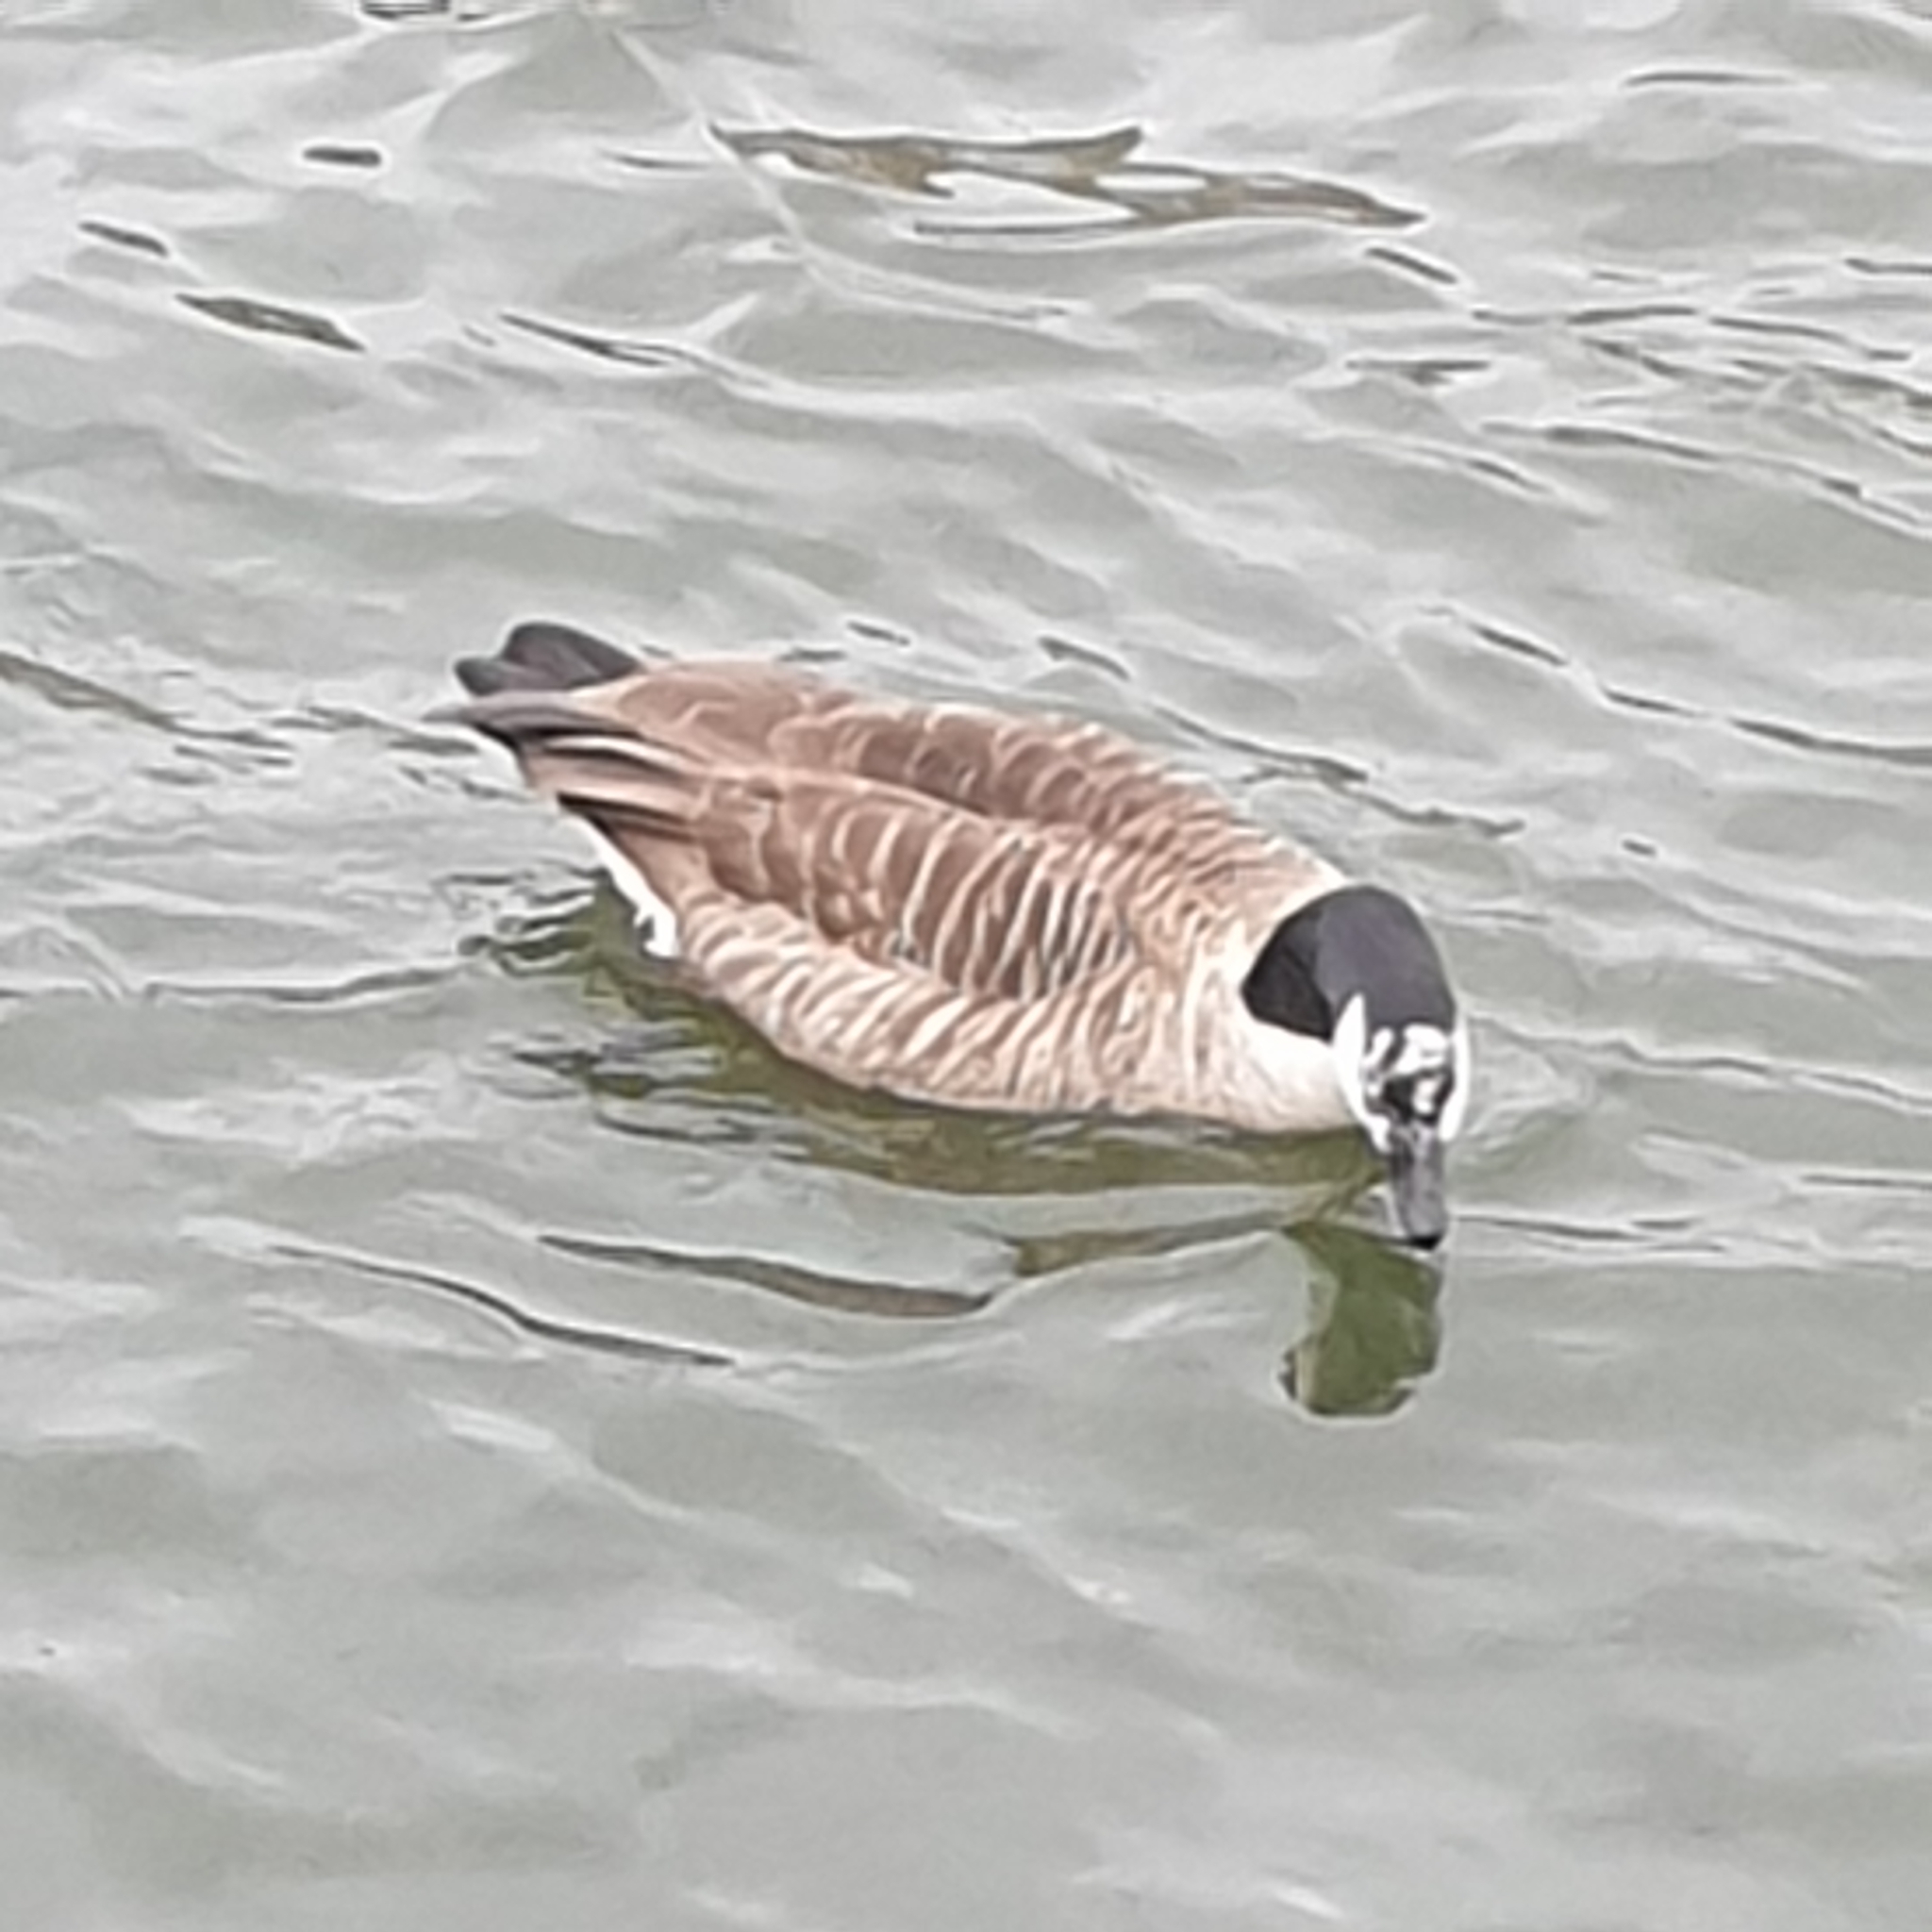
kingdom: Animalia
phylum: Chordata
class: Aves
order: Anseriformes
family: Anatidae
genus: Branta
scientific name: Branta canadensis
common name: Canada goose
